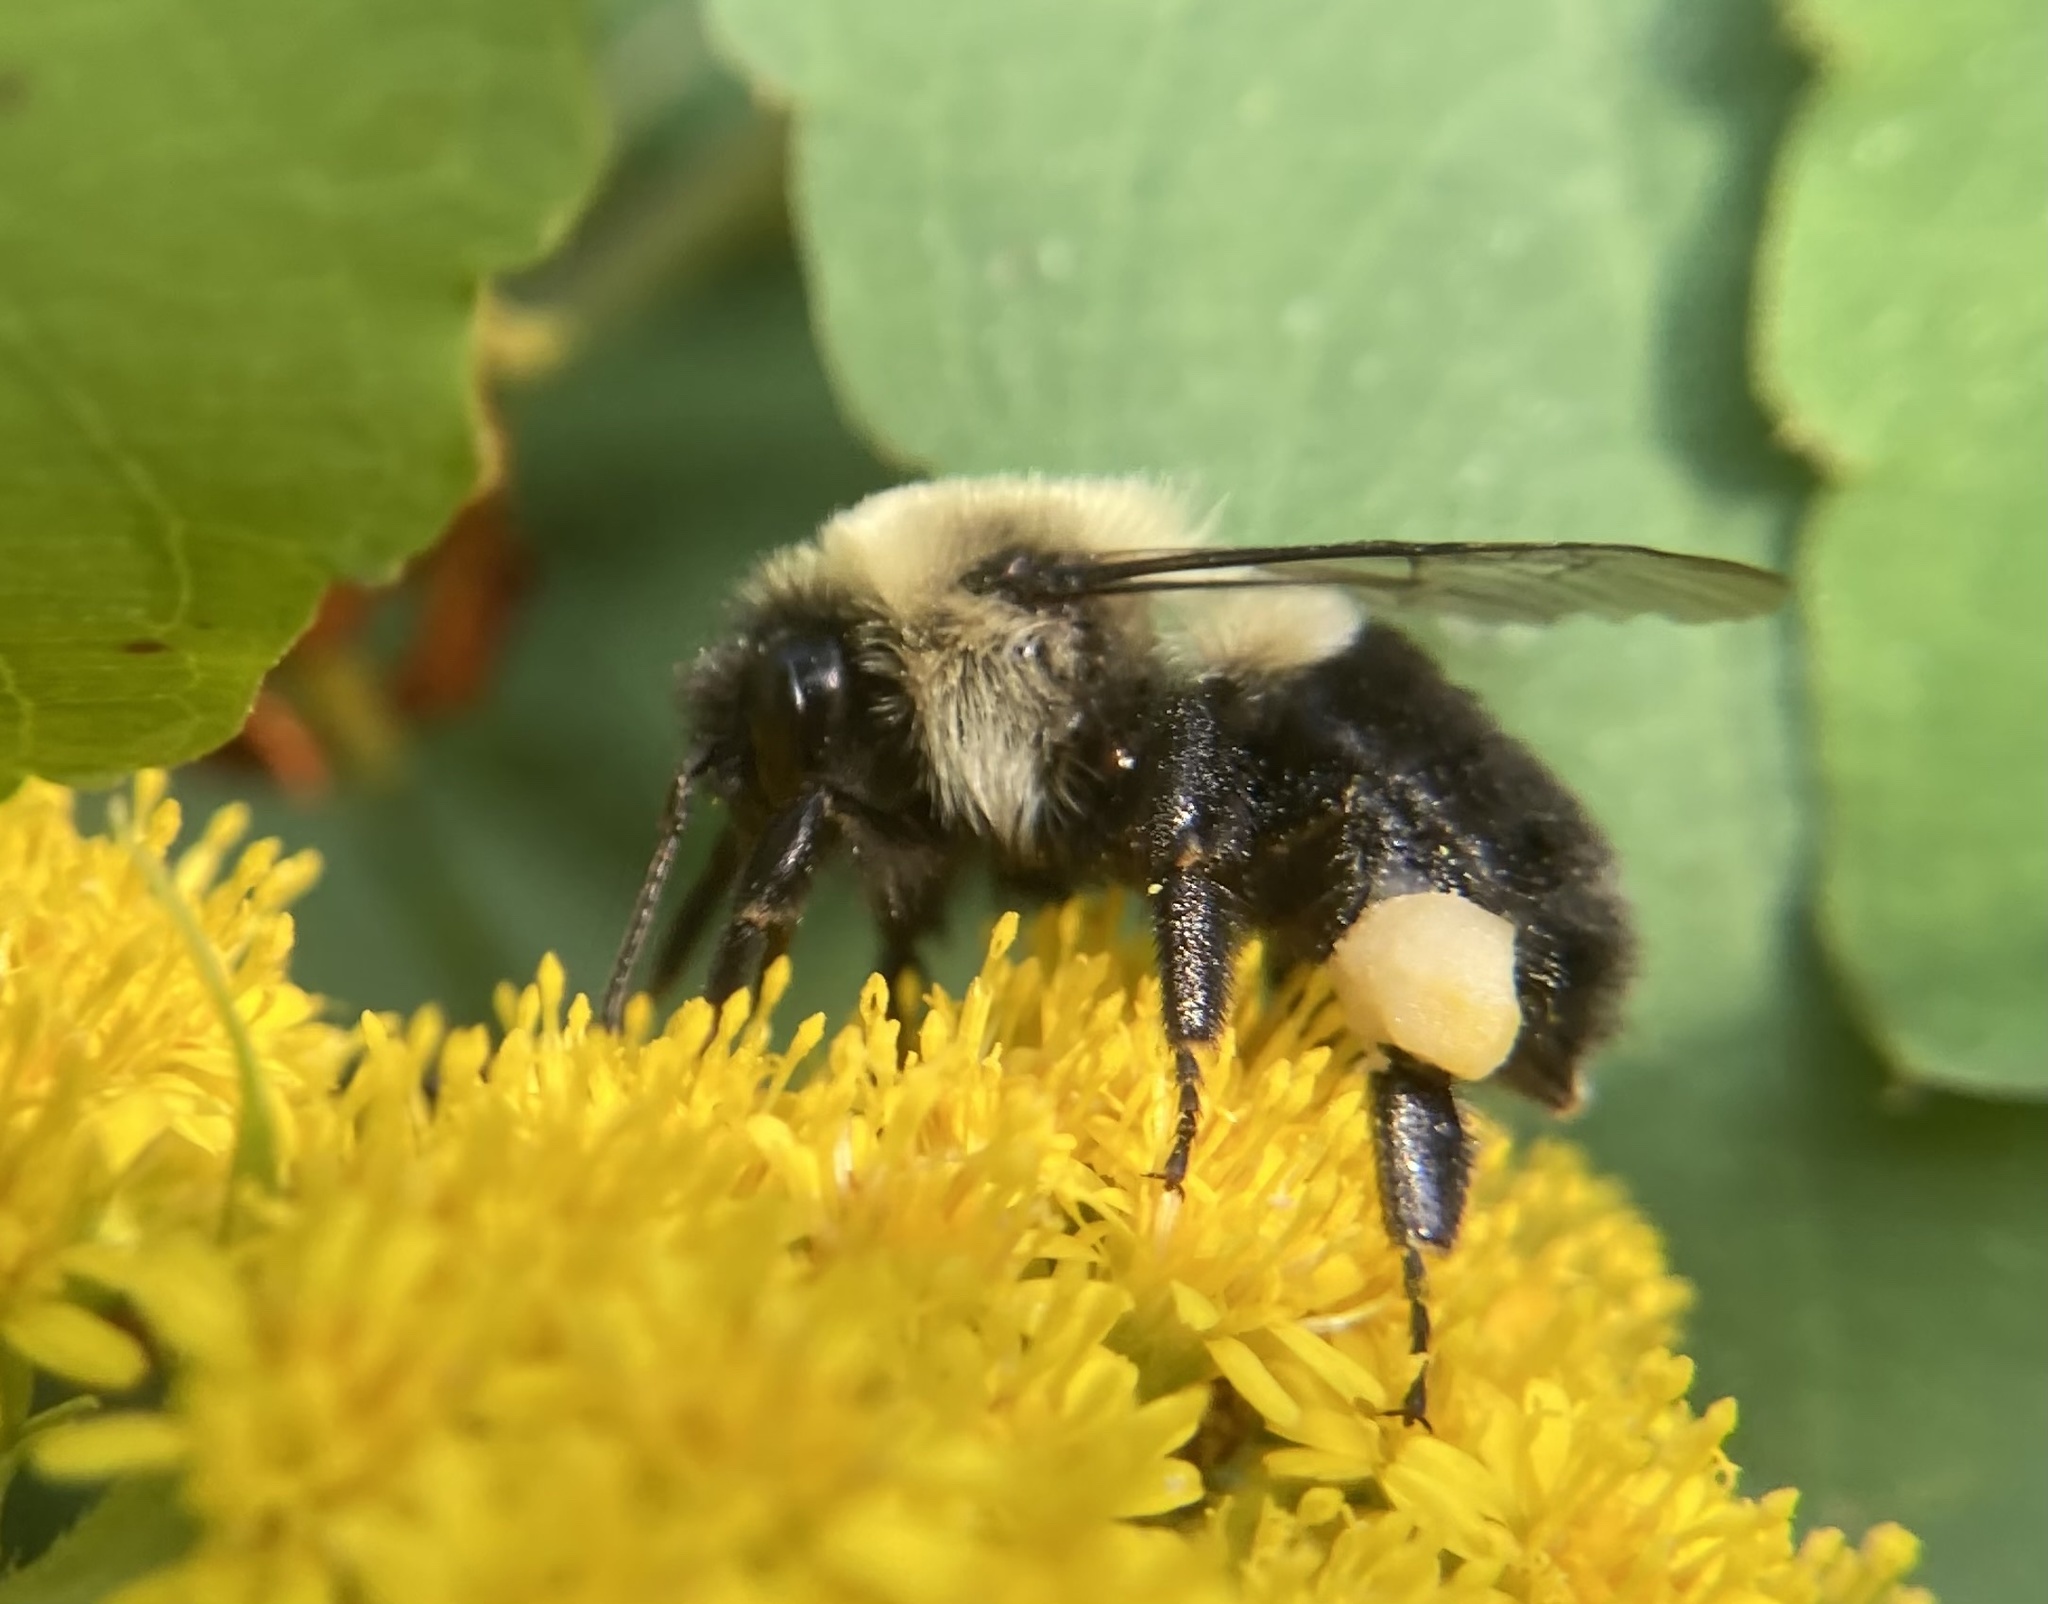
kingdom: Animalia
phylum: Arthropoda
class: Insecta
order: Hymenoptera
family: Apidae
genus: Bombus
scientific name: Bombus impatiens
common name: Common eastern bumble bee
